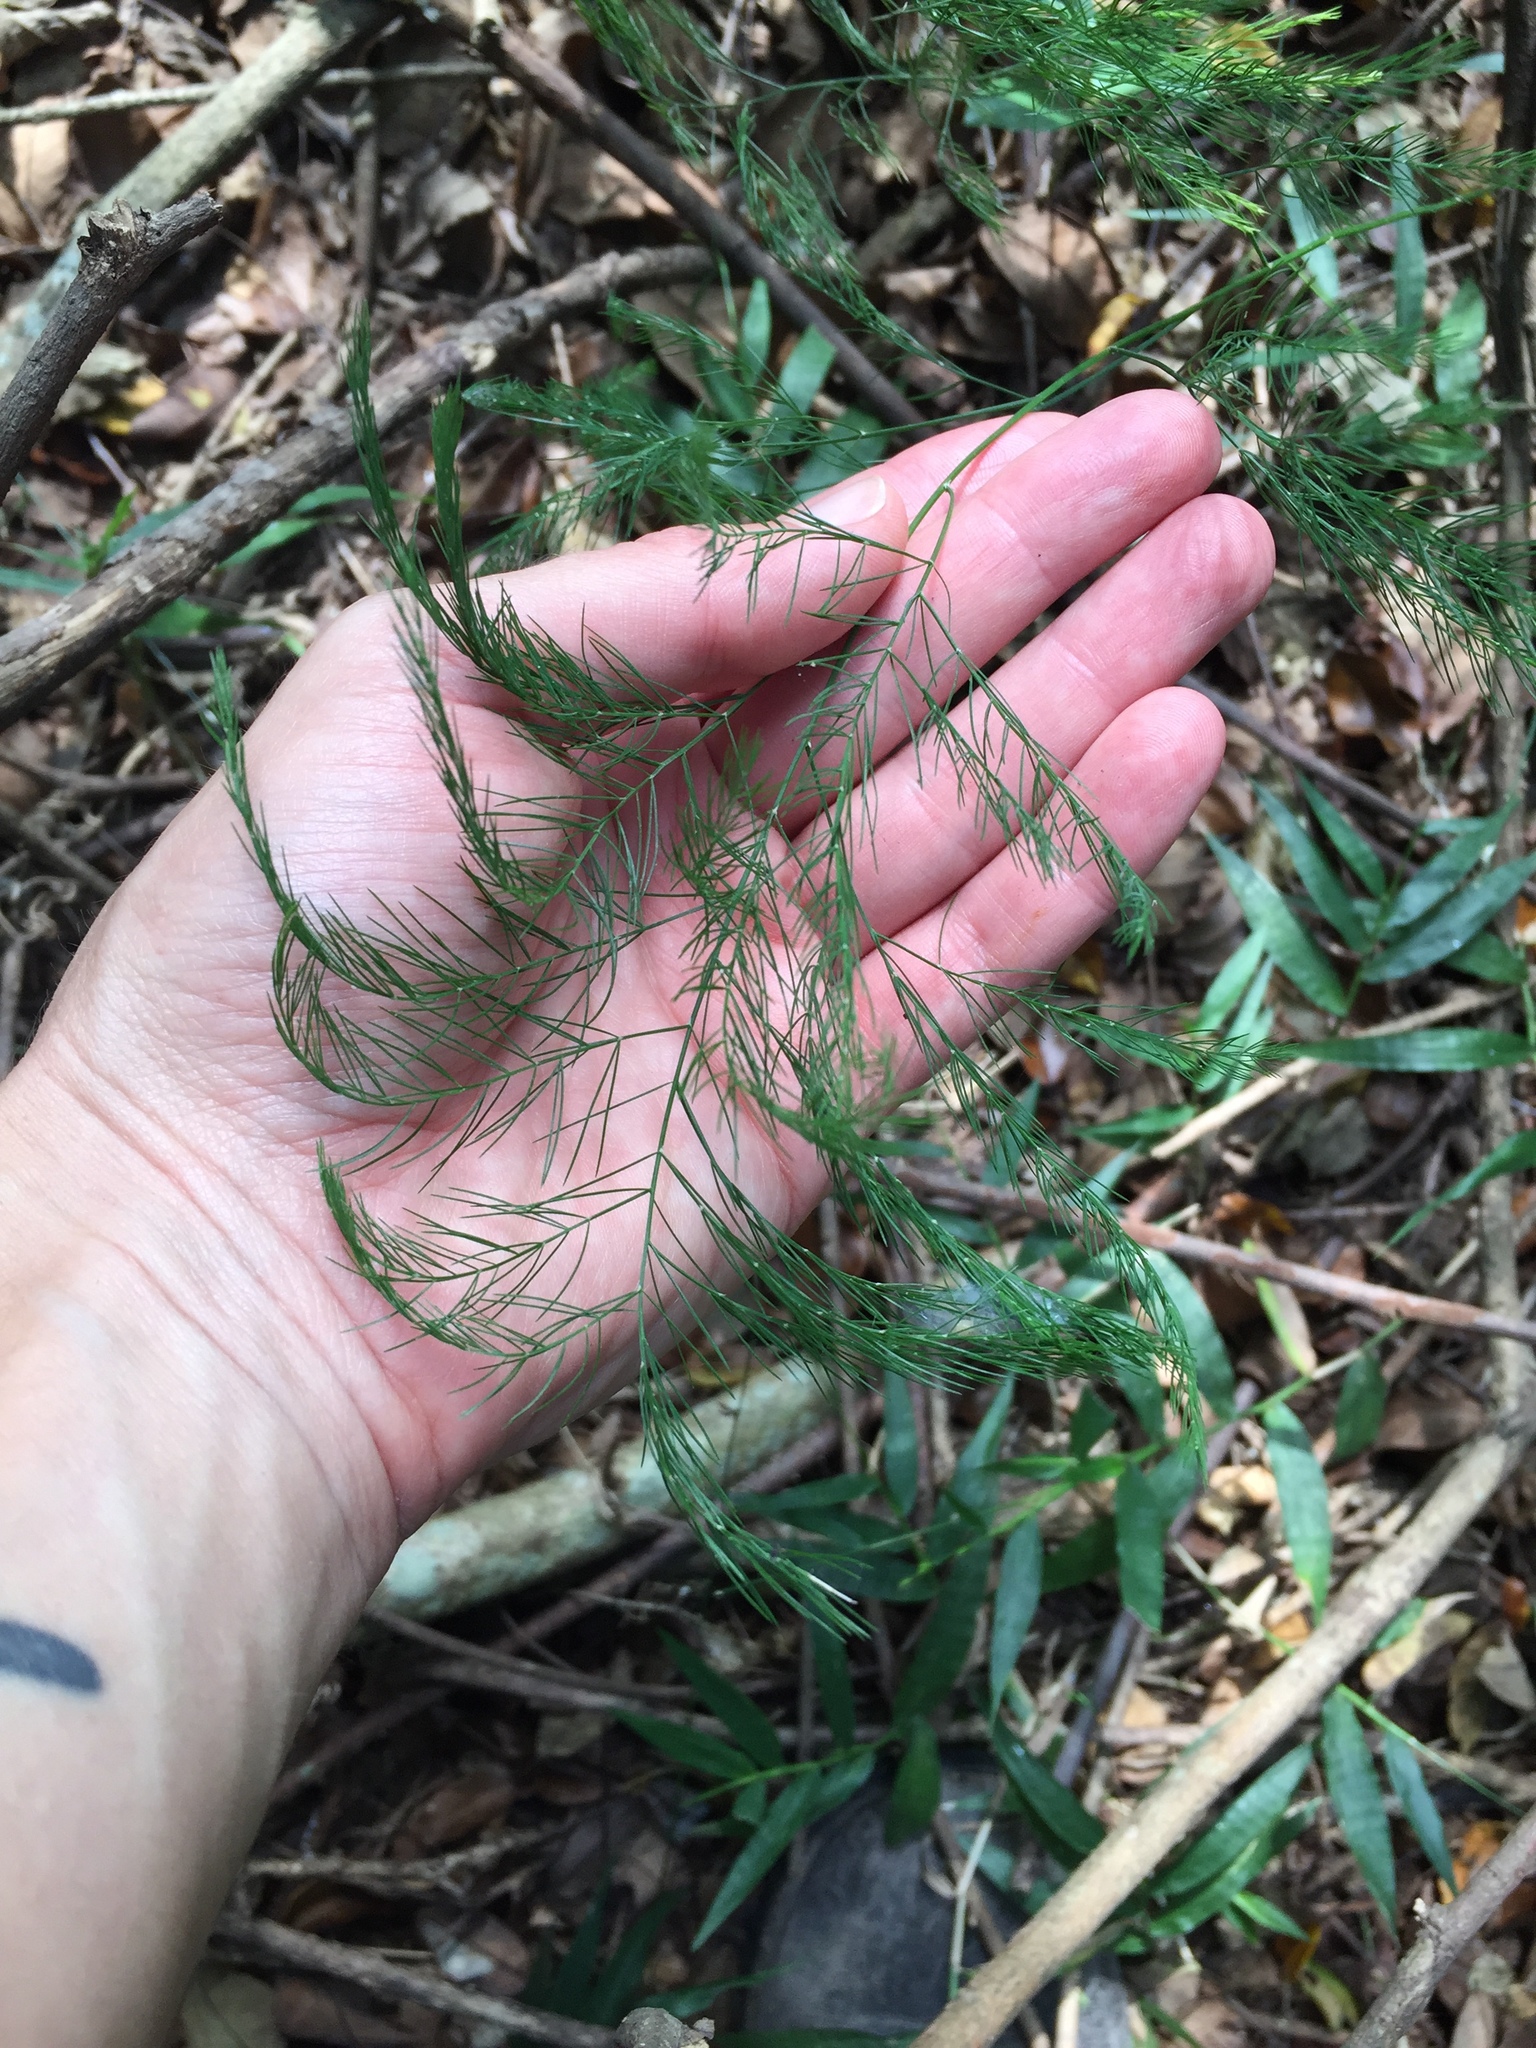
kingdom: Plantae
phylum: Tracheophyta
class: Liliopsida
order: Asparagales
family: Asparagaceae
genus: Asparagus
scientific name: Asparagus virgatus
